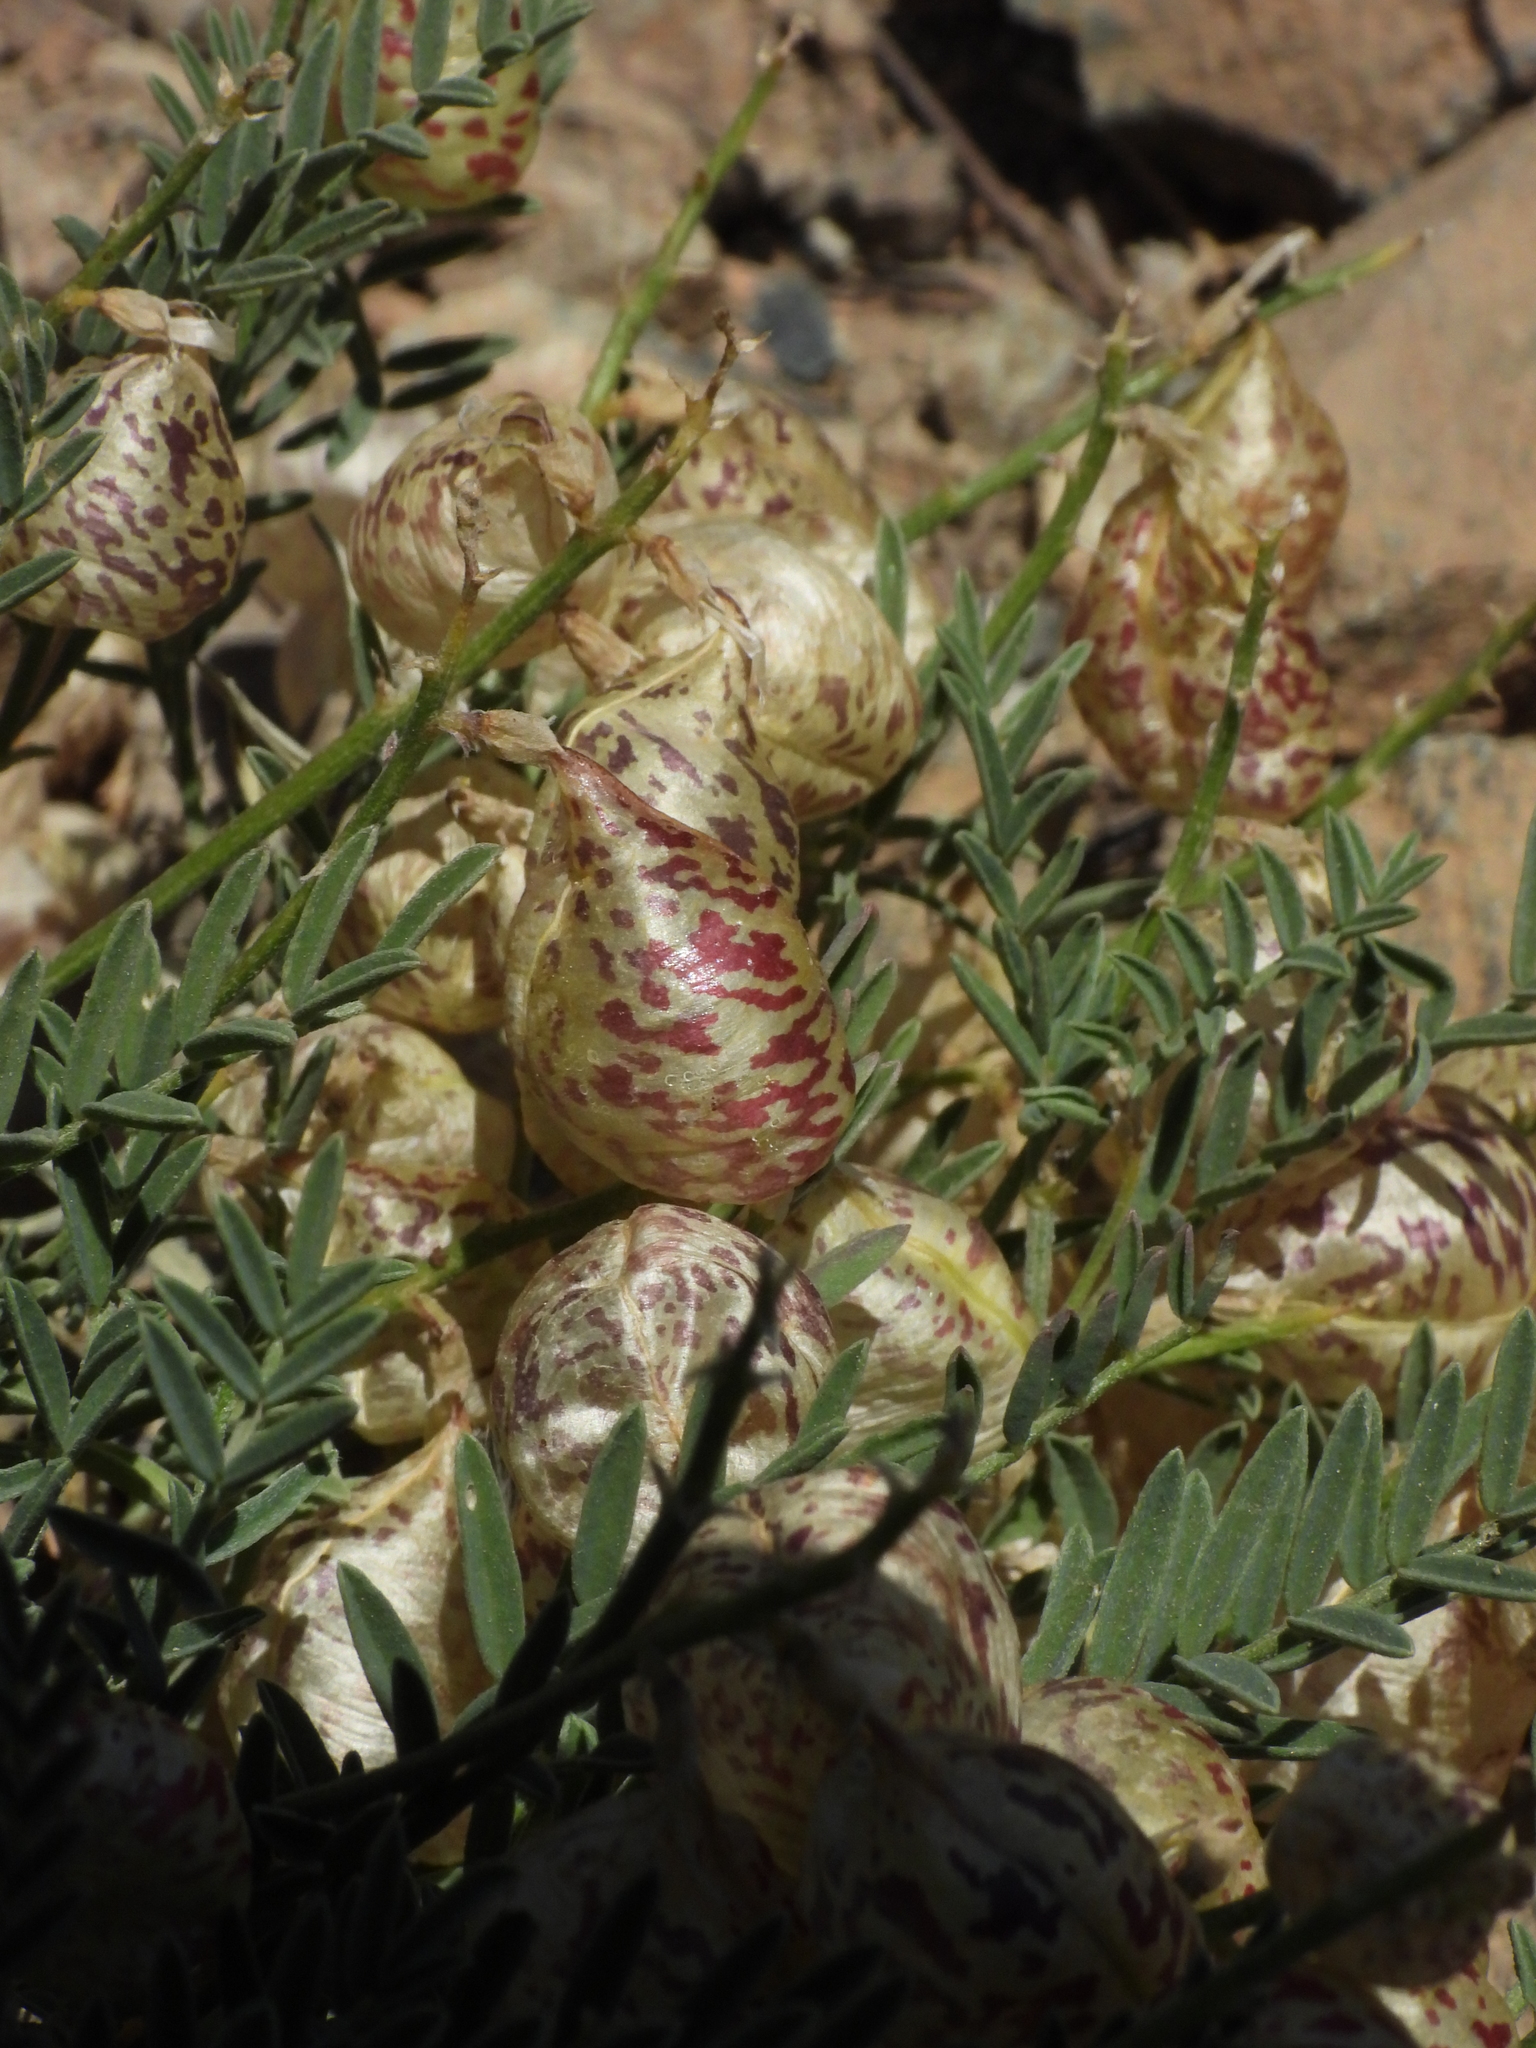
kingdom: Plantae
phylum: Tracheophyta
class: Magnoliopsida
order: Fabales
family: Fabaceae
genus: Astragalus
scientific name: Astragalus whitneyi
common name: Balloonpod milkvetch
